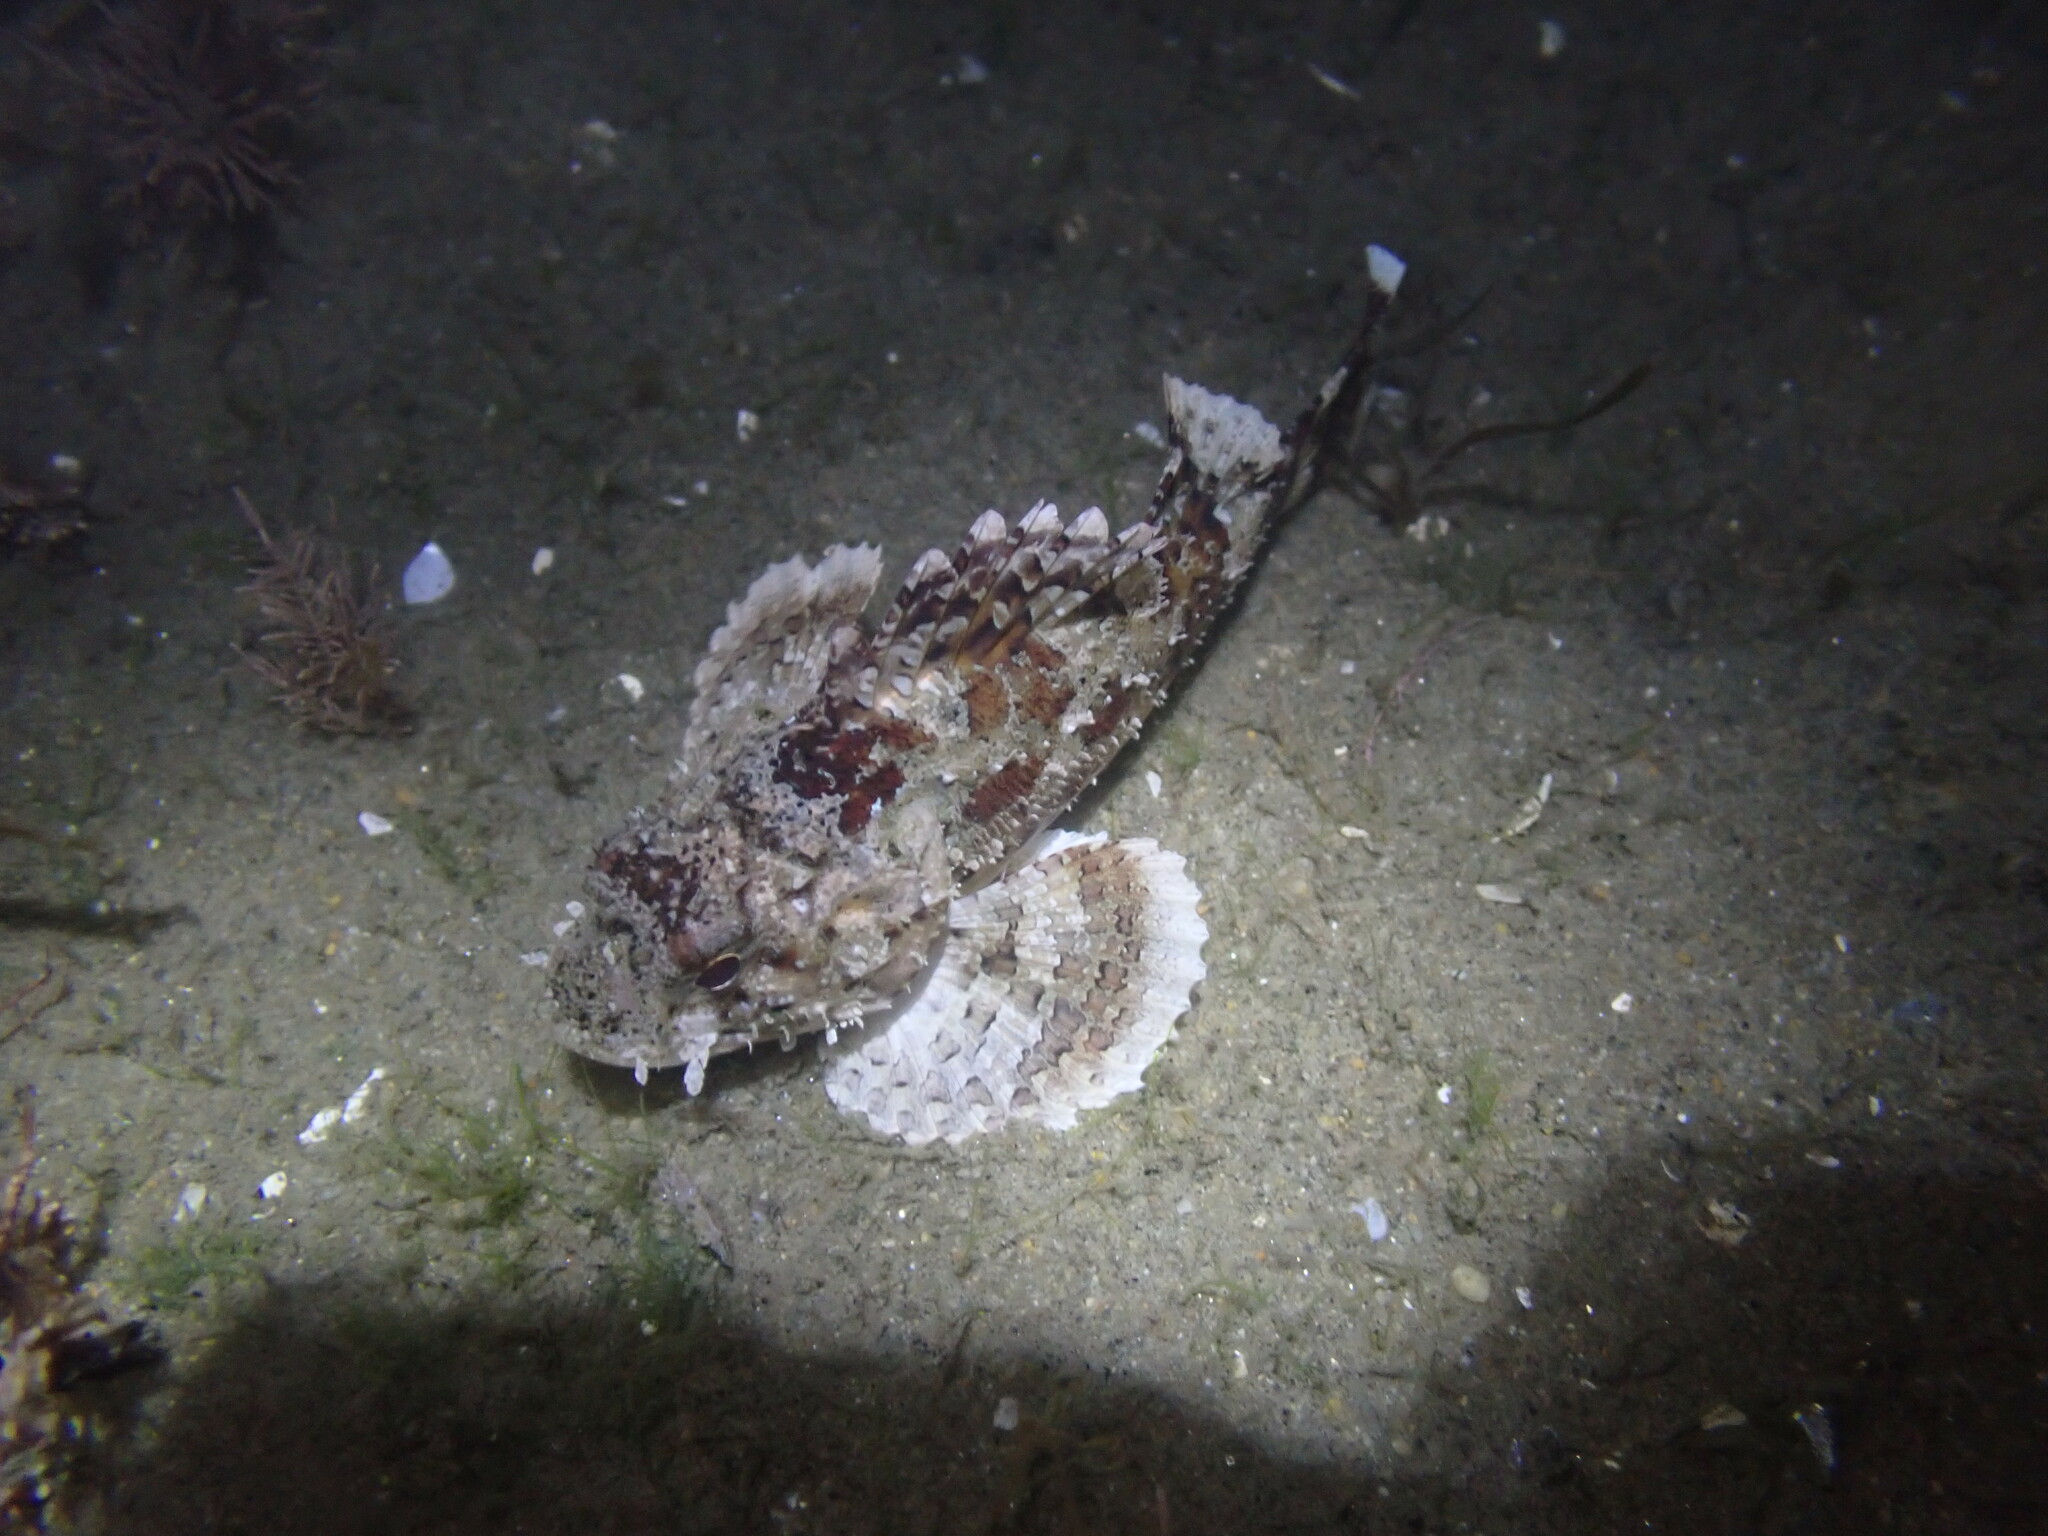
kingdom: Animalia
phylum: Chordata
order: Scorpaeniformes
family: Scorpaenidae
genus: Scorpaena
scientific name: Scorpaena guttata
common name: California scorpionfish
